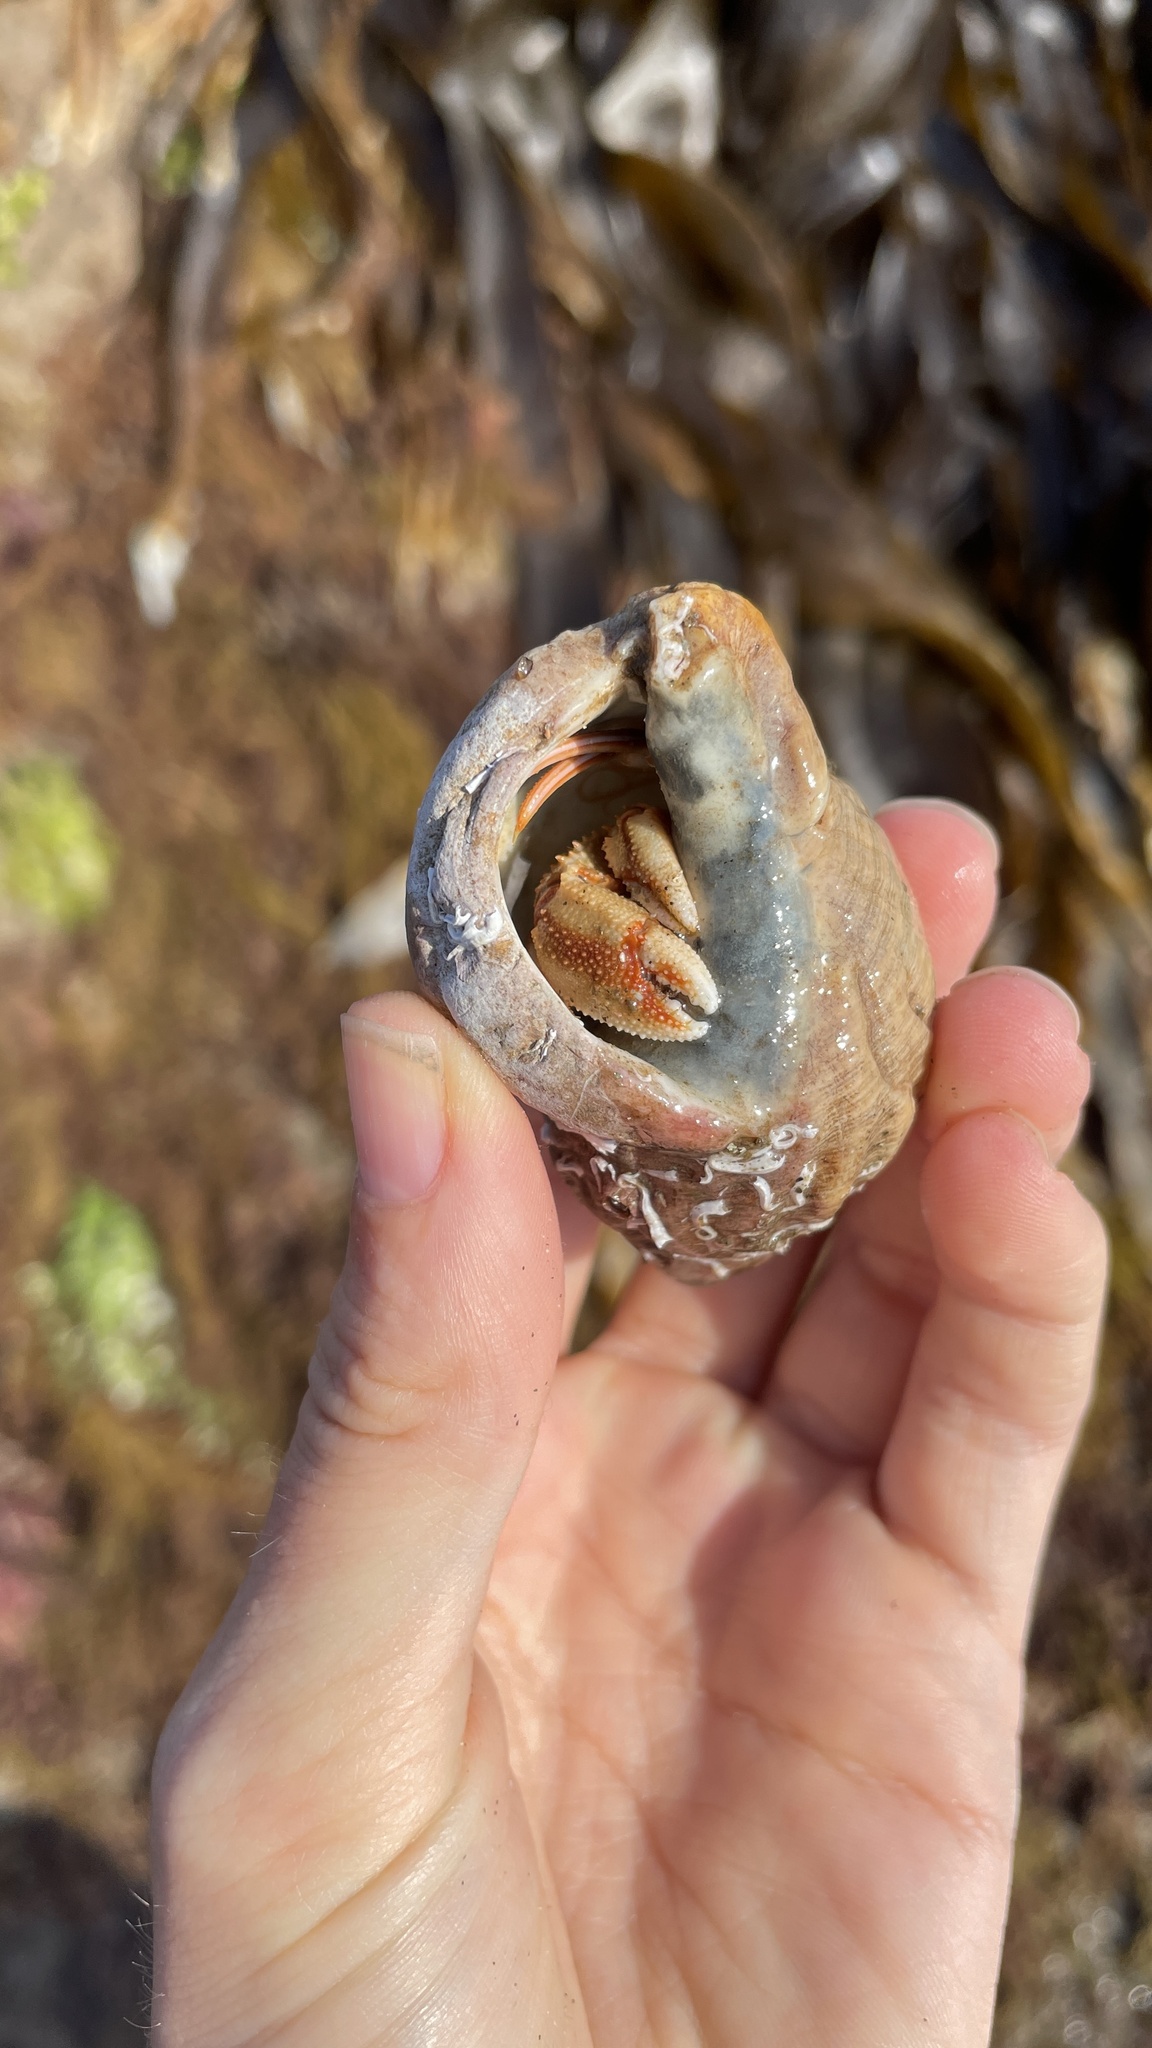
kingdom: Animalia
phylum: Arthropoda
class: Malacostraca
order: Decapoda
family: Paguridae
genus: Pagurus
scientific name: Pagurus bernhardus
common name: Hermit crab
